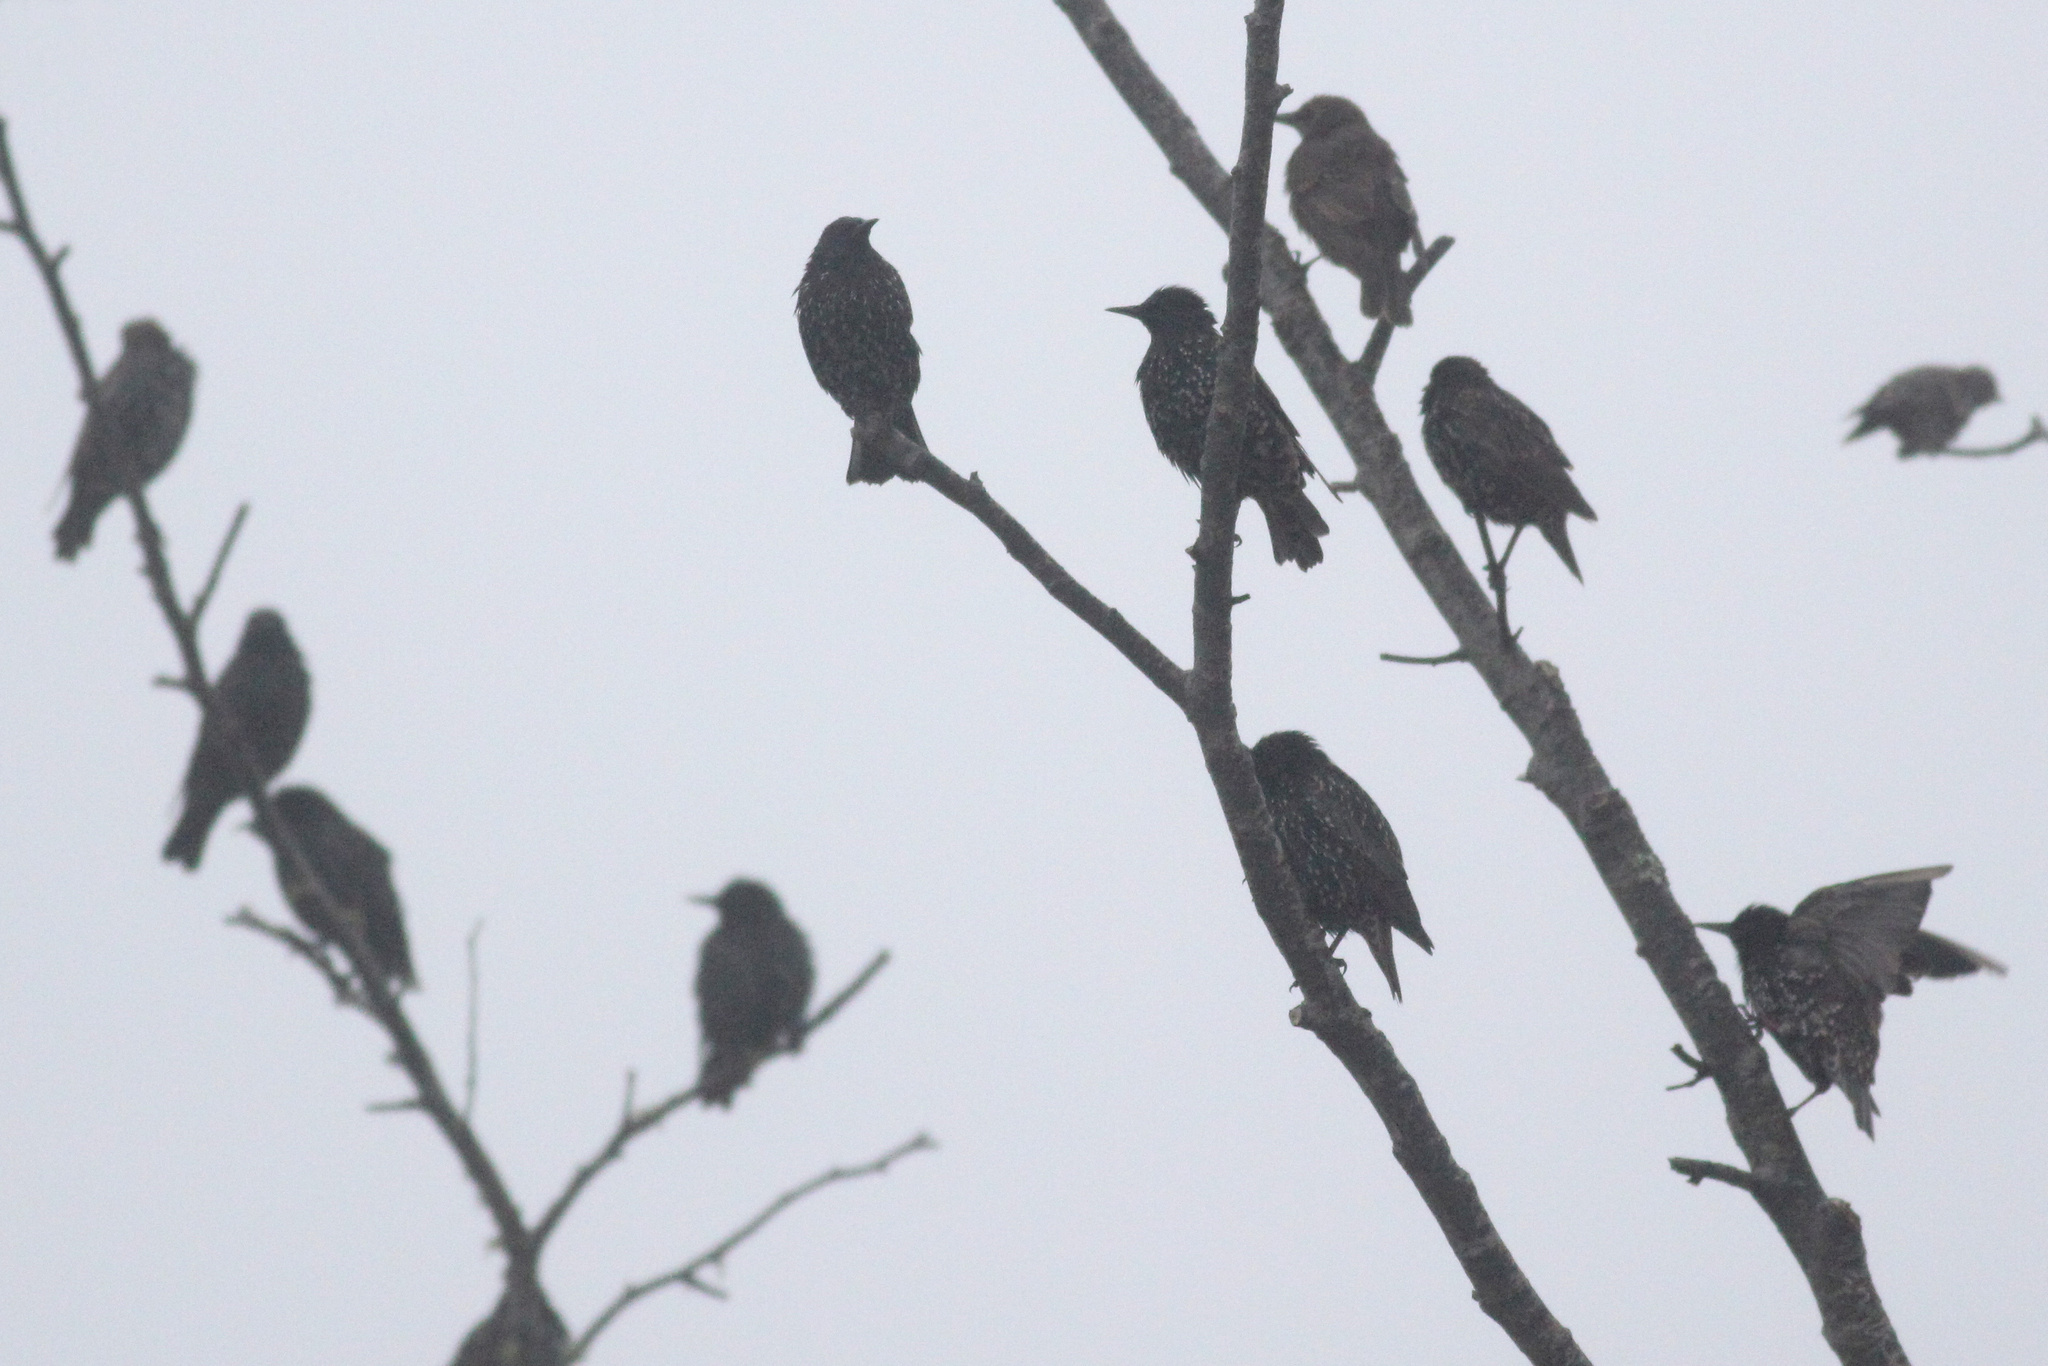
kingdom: Animalia
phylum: Chordata
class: Aves
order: Passeriformes
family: Sturnidae
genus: Sturnus
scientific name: Sturnus vulgaris
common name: Common starling
